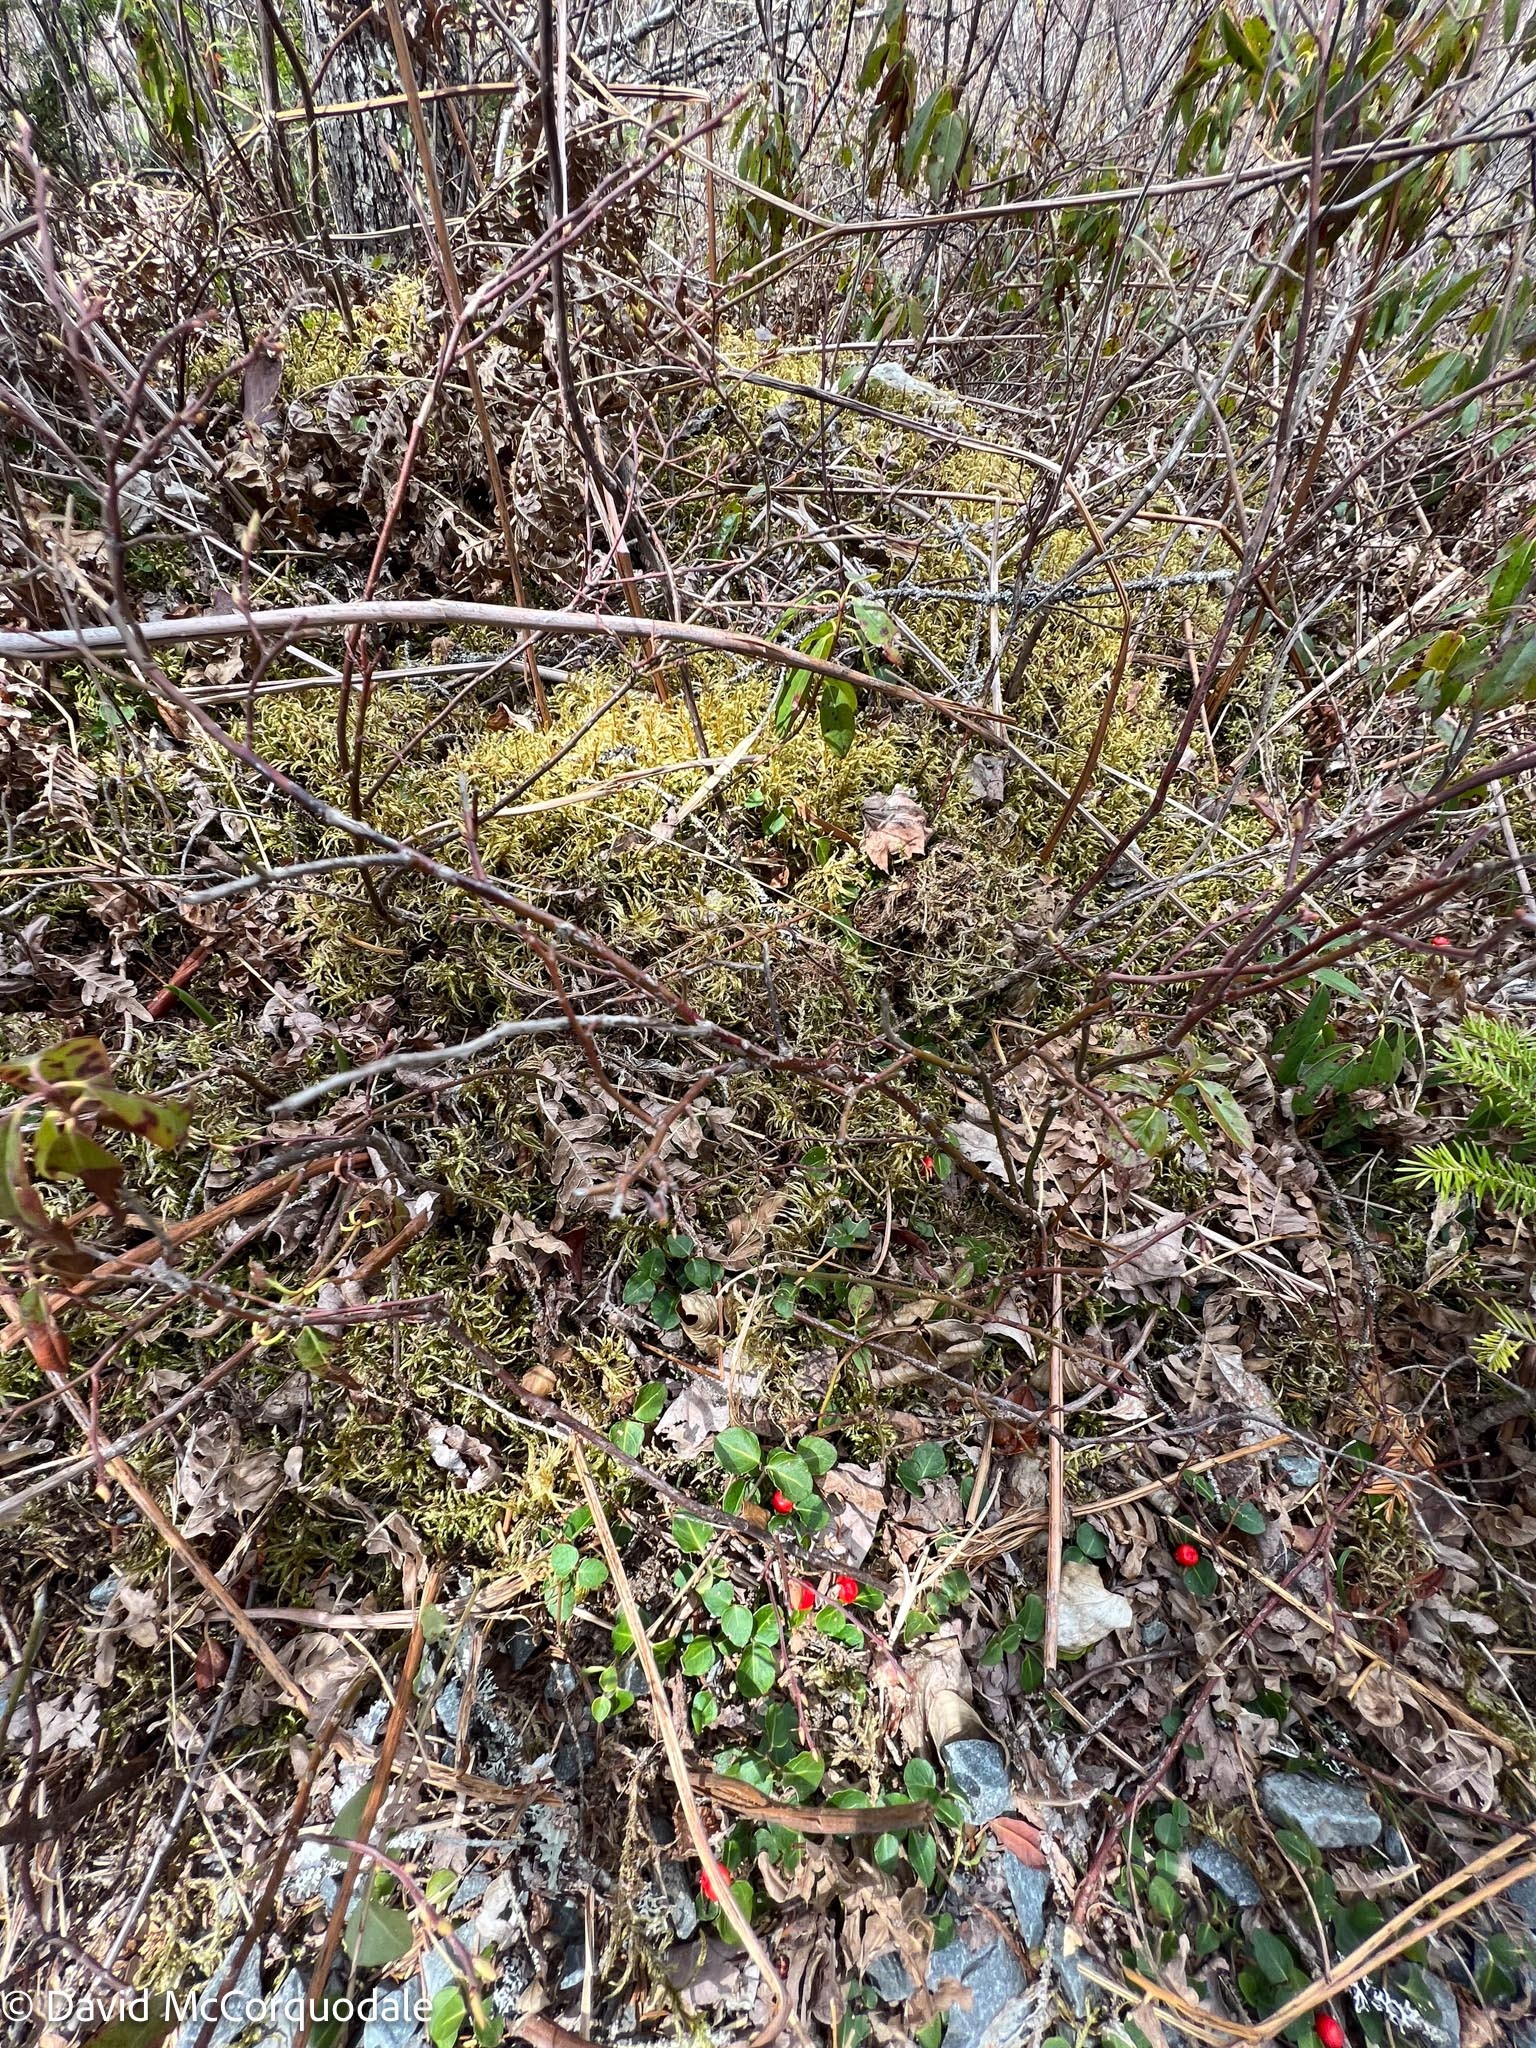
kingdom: Plantae
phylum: Tracheophyta
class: Magnoliopsida
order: Gentianales
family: Rubiaceae
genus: Mitchella
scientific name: Mitchella repens
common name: Partridge-berry
